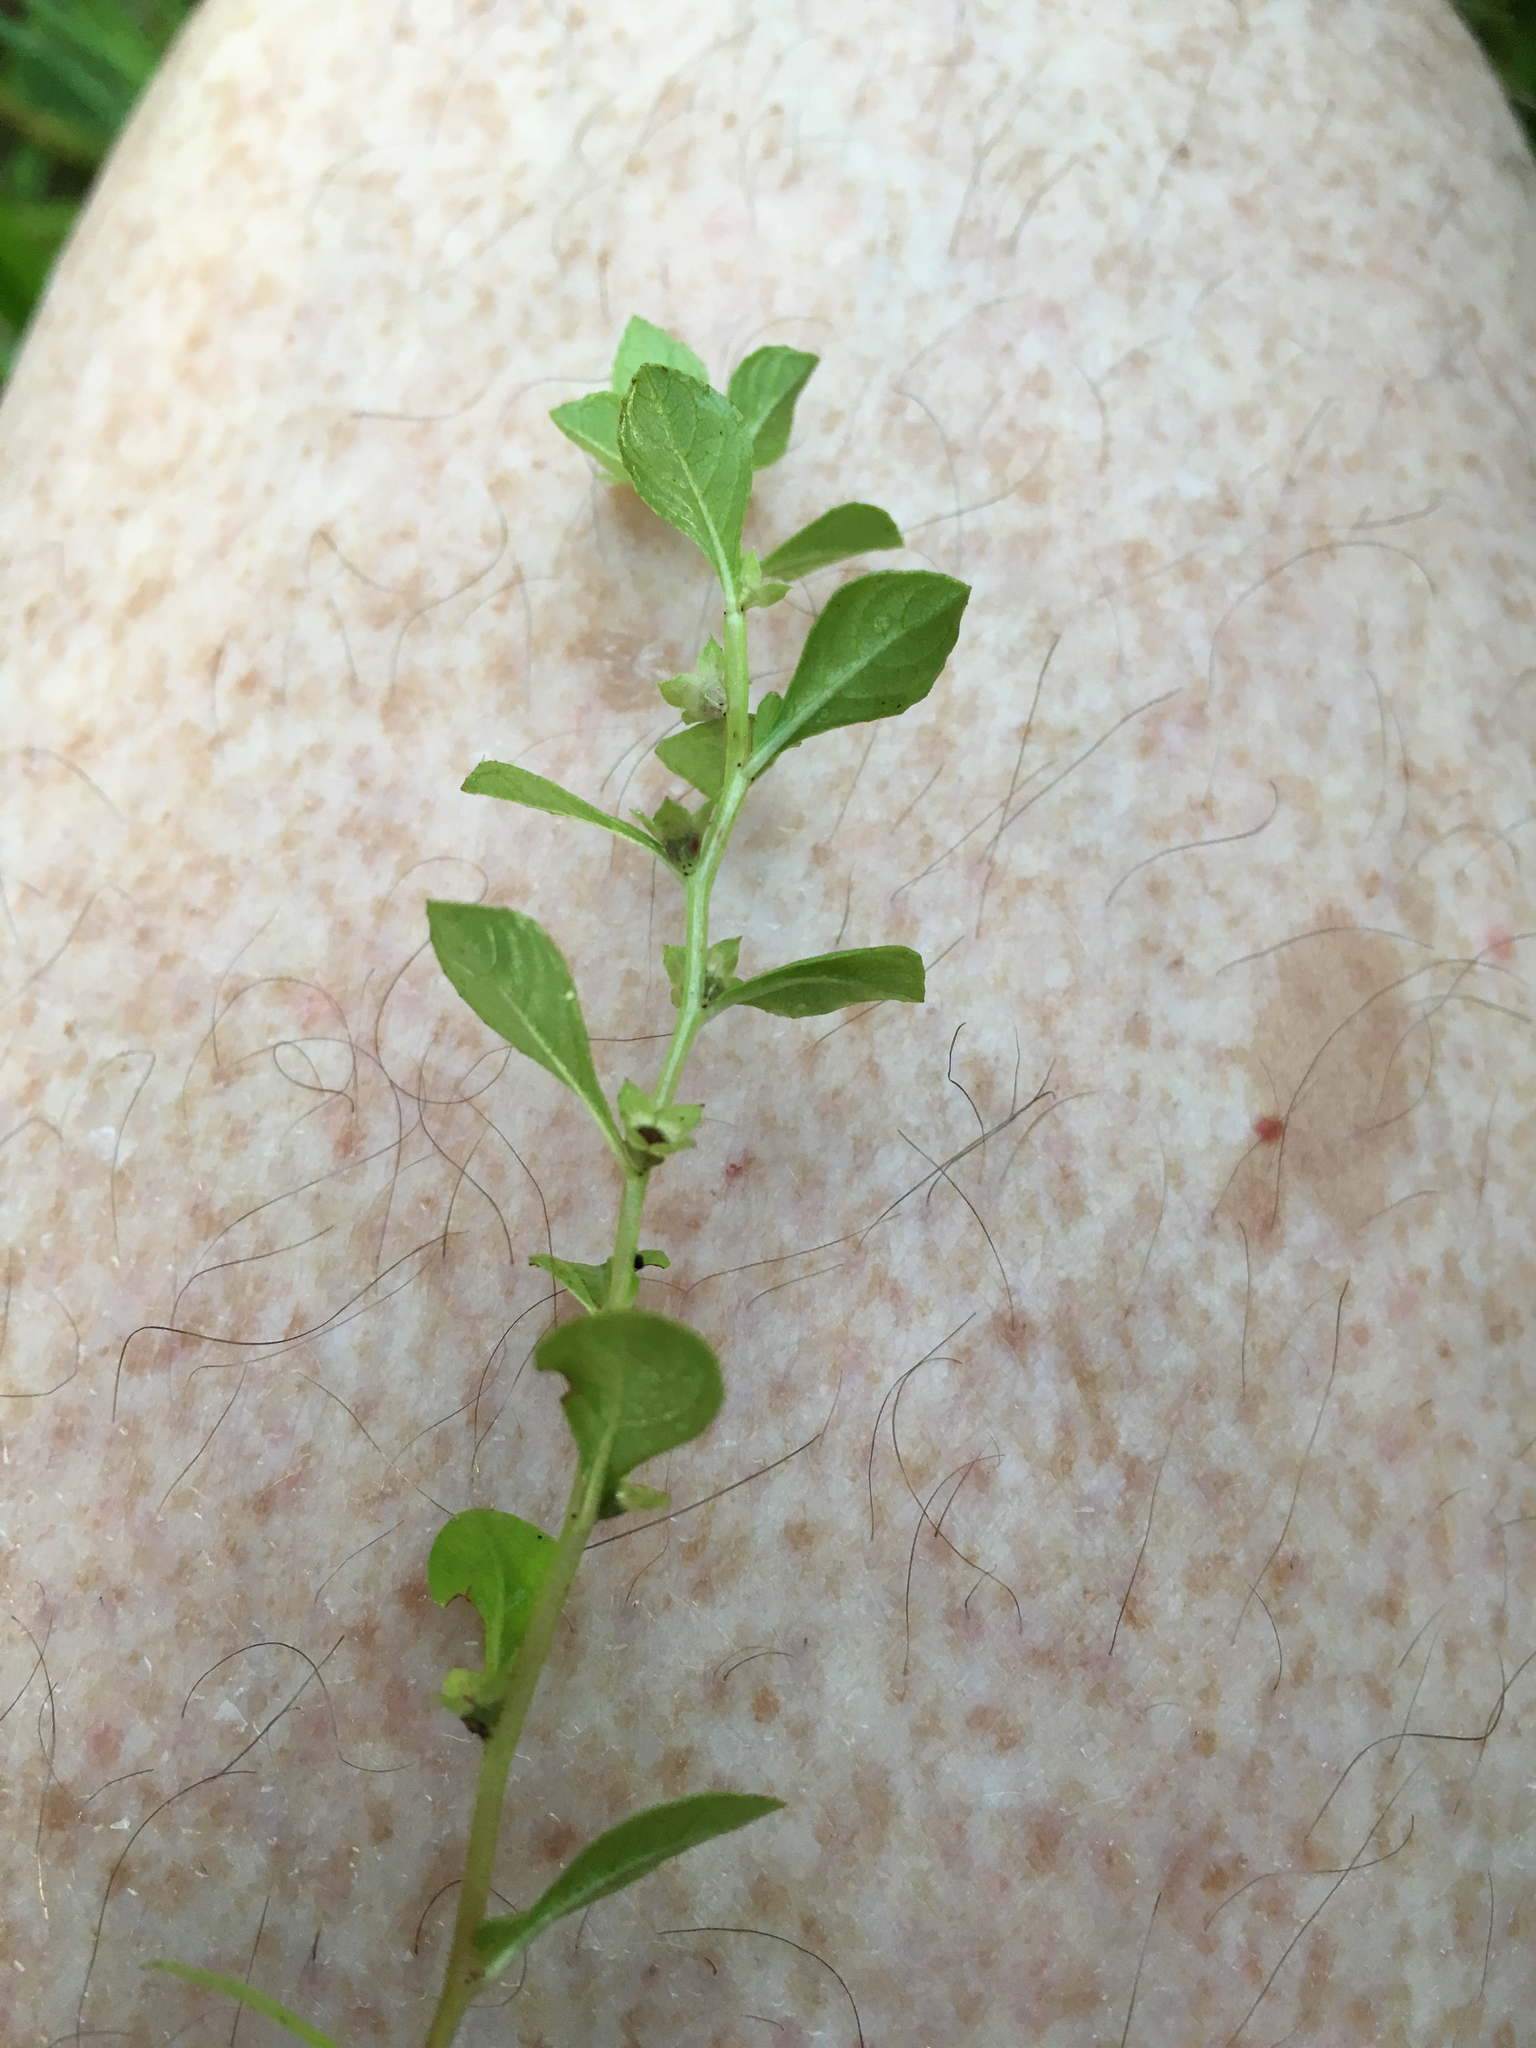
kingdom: Plantae
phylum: Tracheophyta
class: Magnoliopsida
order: Myrtales
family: Onagraceae
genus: Ludwigia
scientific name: Ludwigia microcarpa
